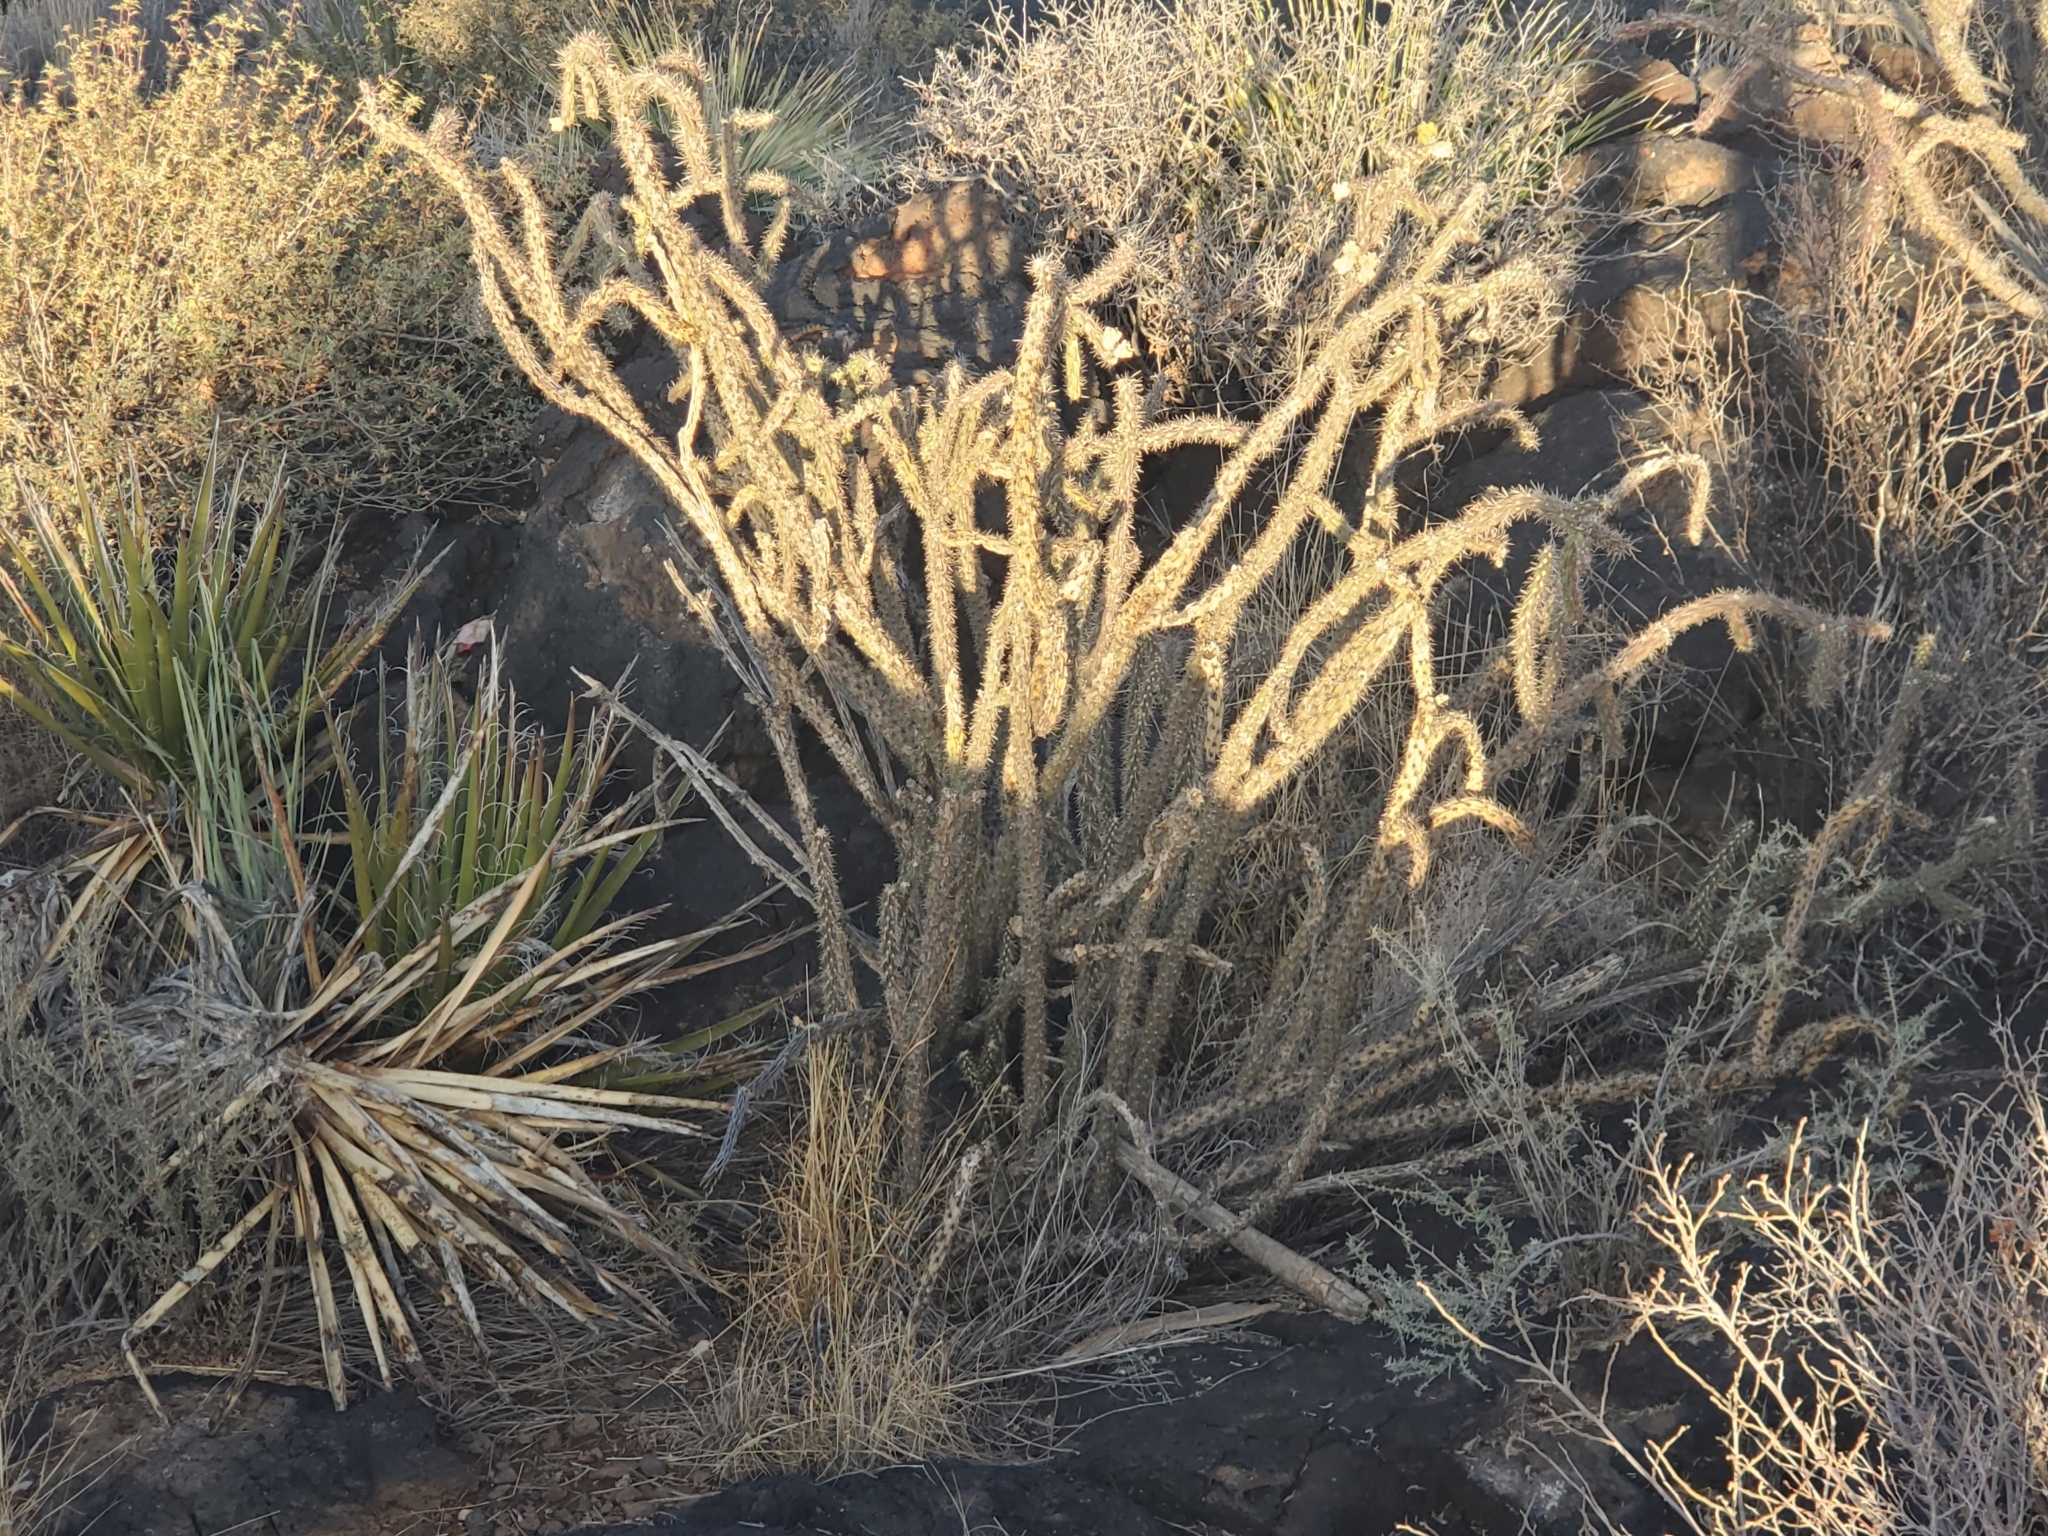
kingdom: Plantae
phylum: Tracheophyta
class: Magnoliopsida
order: Caryophyllales
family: Cactaceae
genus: Cylindropuntia
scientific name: Cylindropuntia imbricata
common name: Candelabrum cactus
